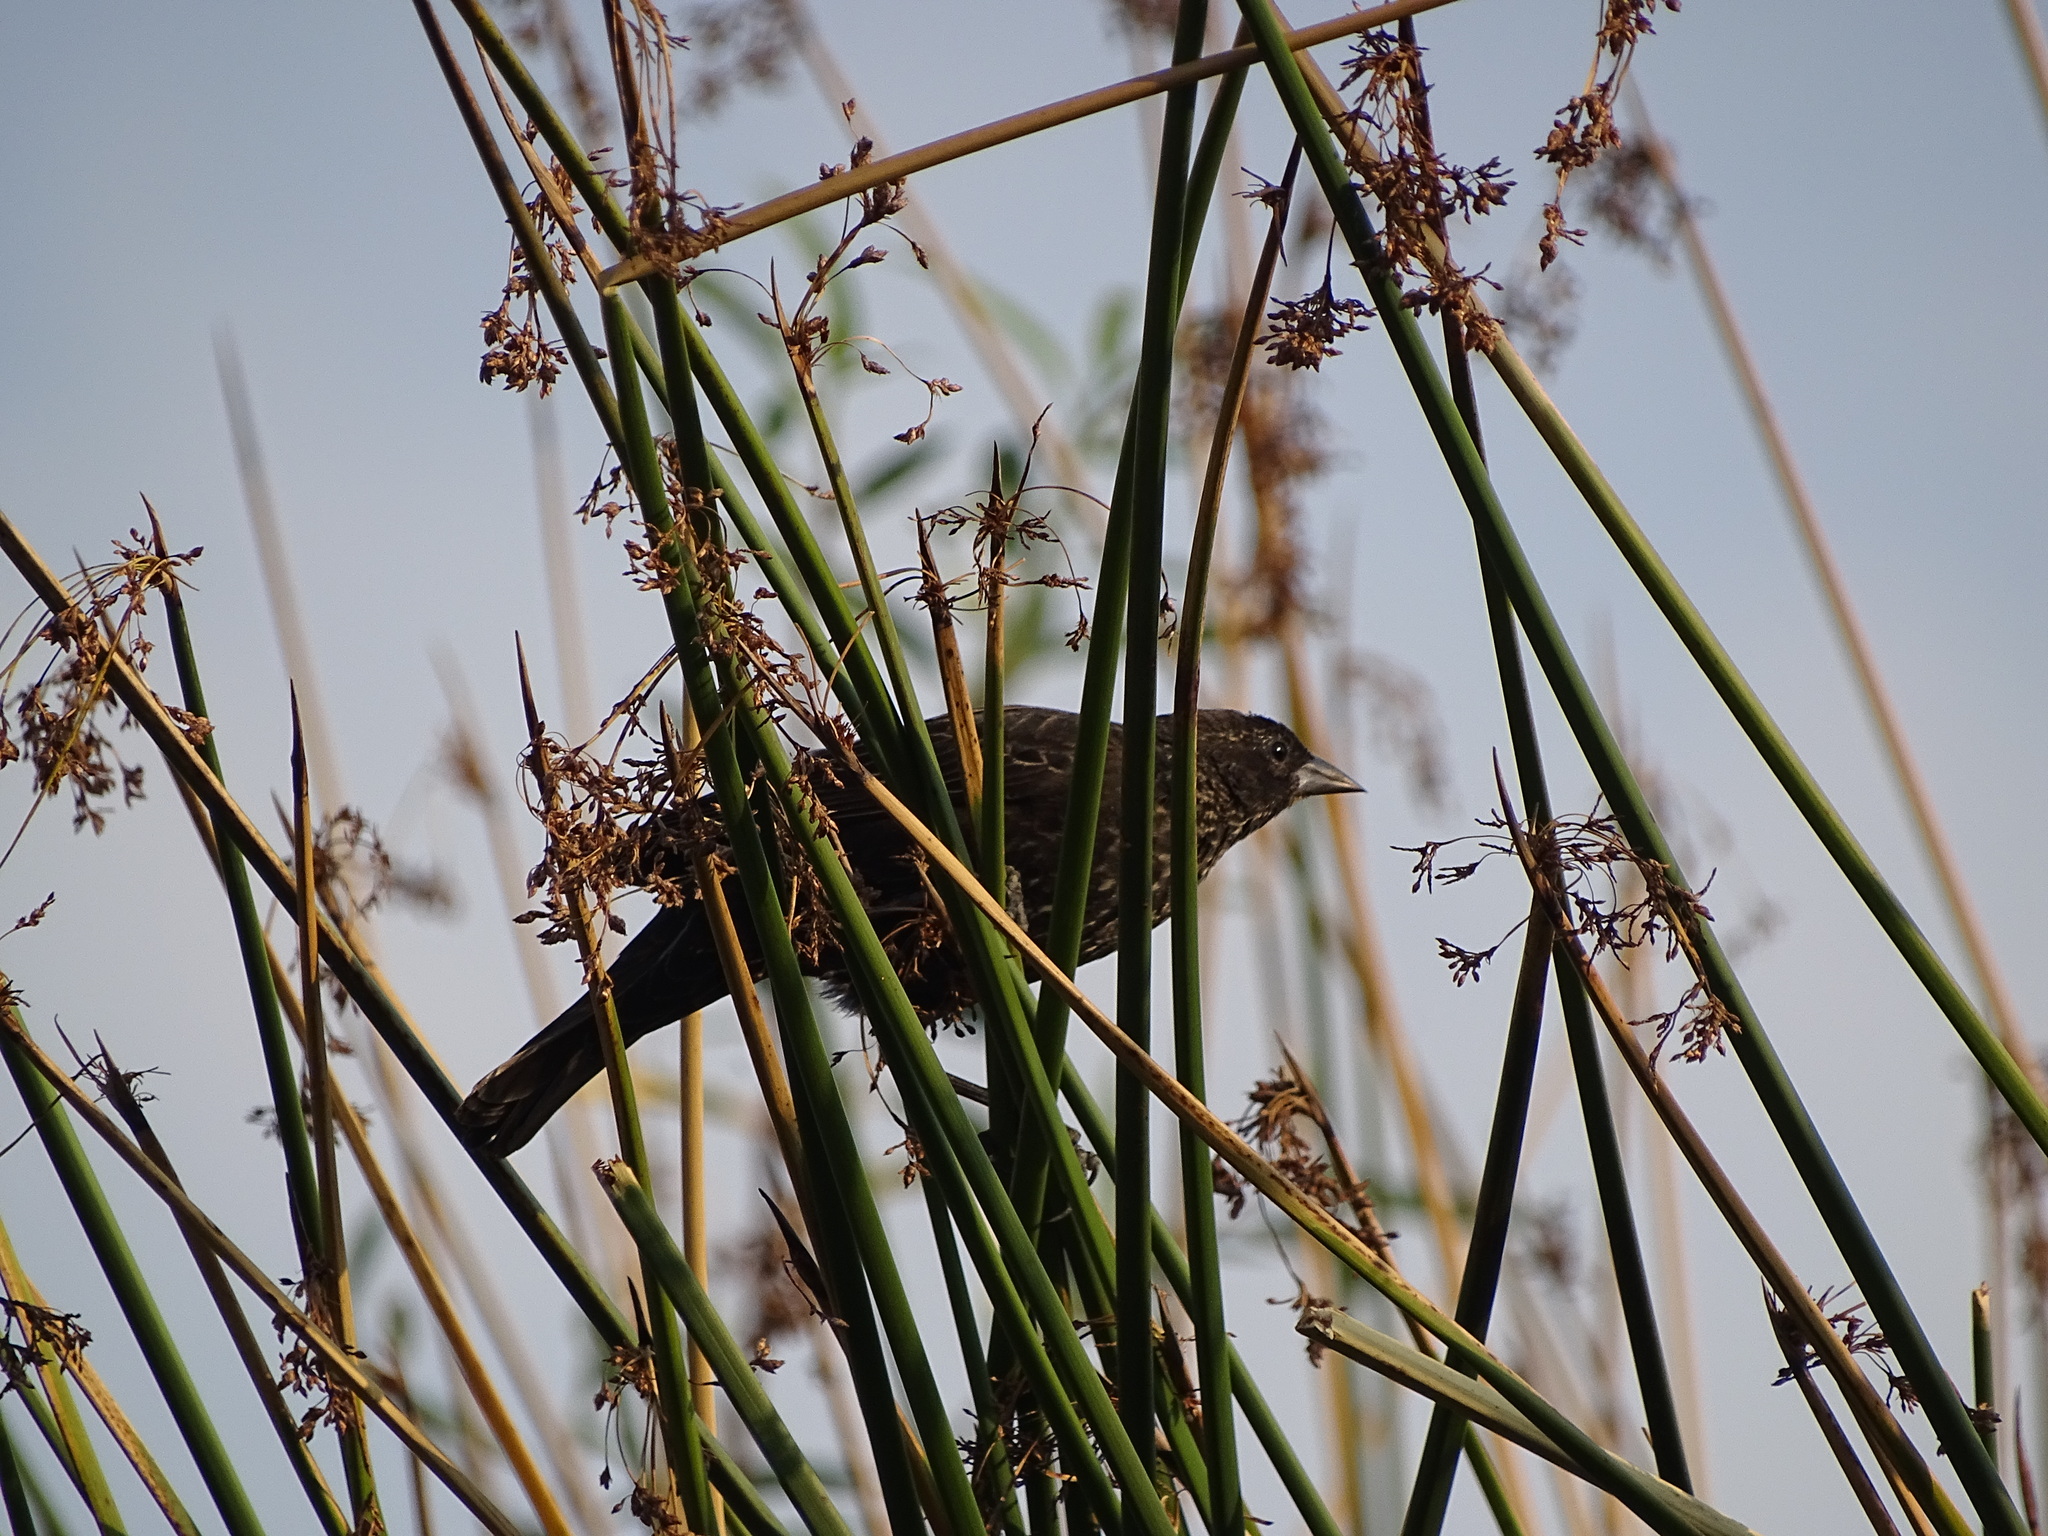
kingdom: Animalia
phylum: Chordata
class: Aves
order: Passeriformes
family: Icteridae
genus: Agelaius
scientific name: Agelaius phoeniceus
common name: Red-winged blackbird
